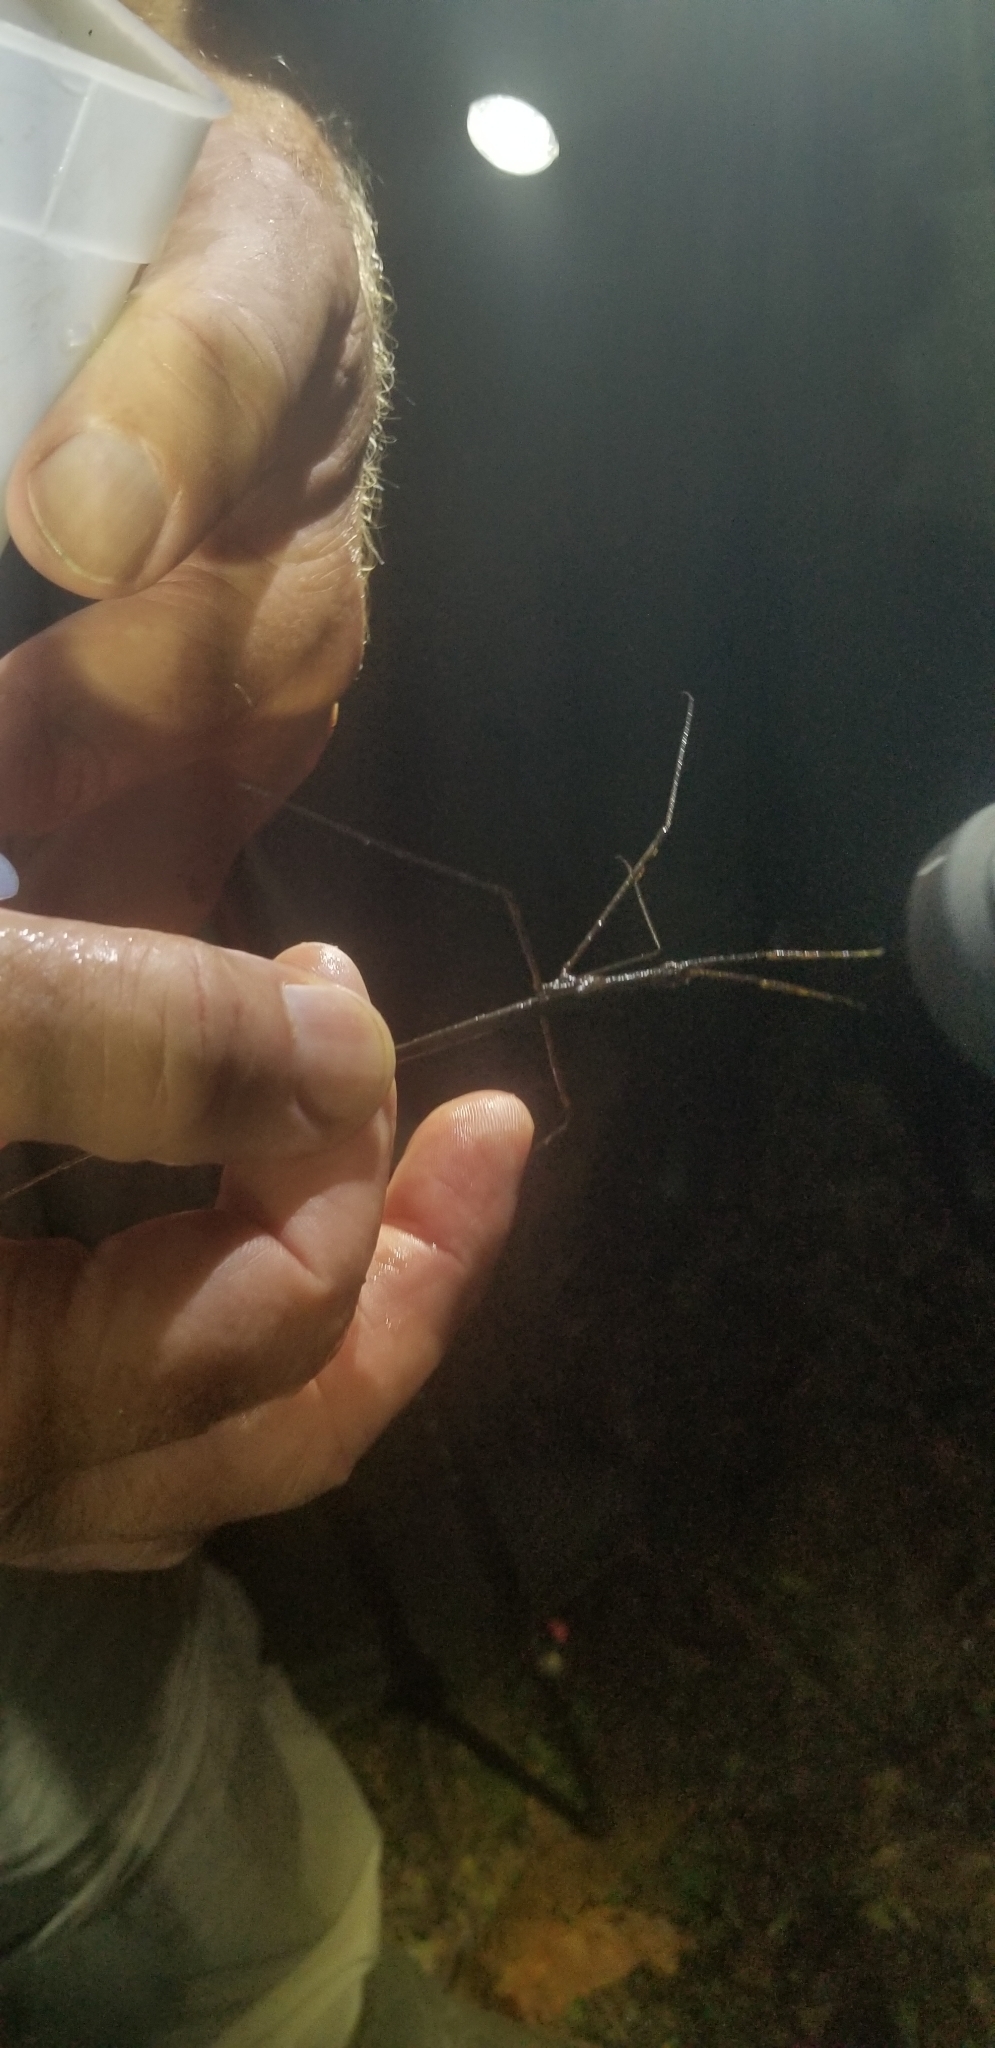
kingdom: Animalia
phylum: Arthropoda
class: Insecta
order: Hemiptera
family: Nepidae
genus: Ranatra
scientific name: Ranatra
